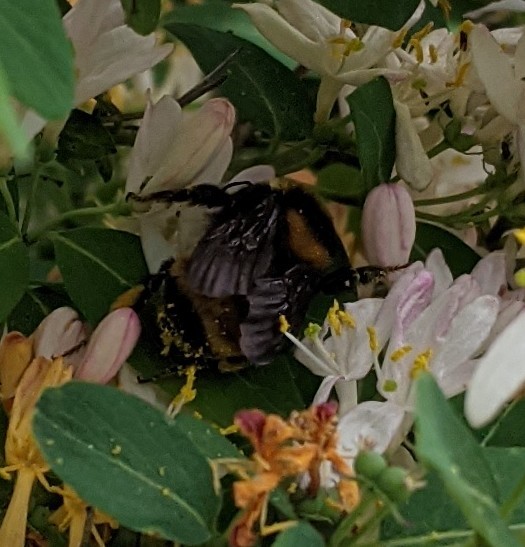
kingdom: Animalia
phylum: Arthropoda
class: Insecta
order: Hymenoptera
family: Apidae
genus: Bombus
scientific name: Bombus borealis
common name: Northern amber bumble bee
